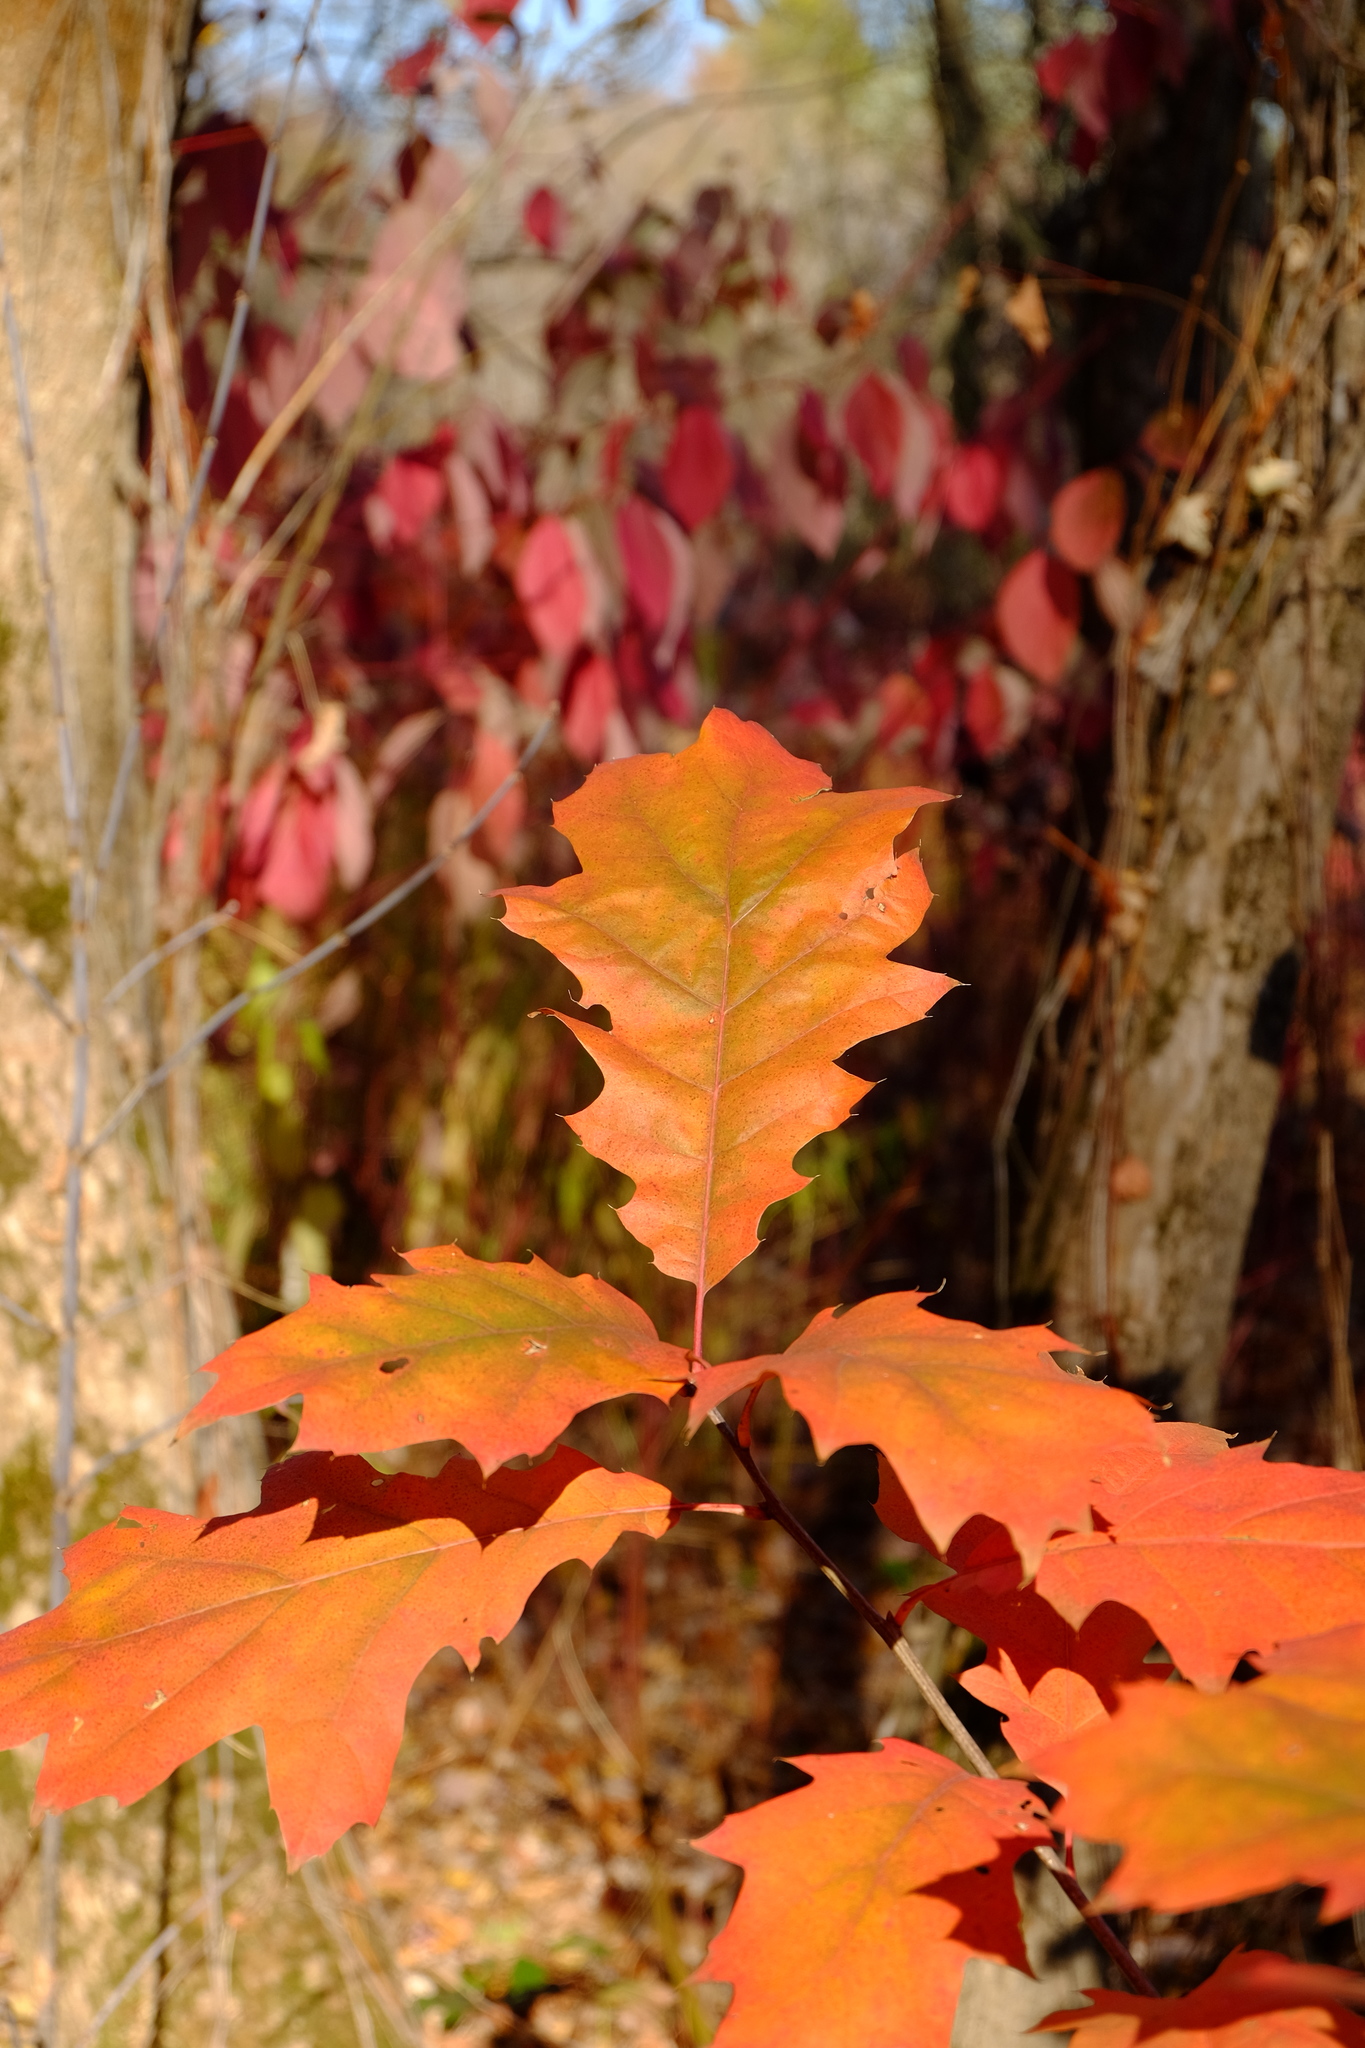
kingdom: Plantae
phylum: Tracheophyta
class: Magnoliopsida
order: Fagales
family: Fagaceae
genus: Quercus
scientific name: Quercus rubra
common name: Red oak
